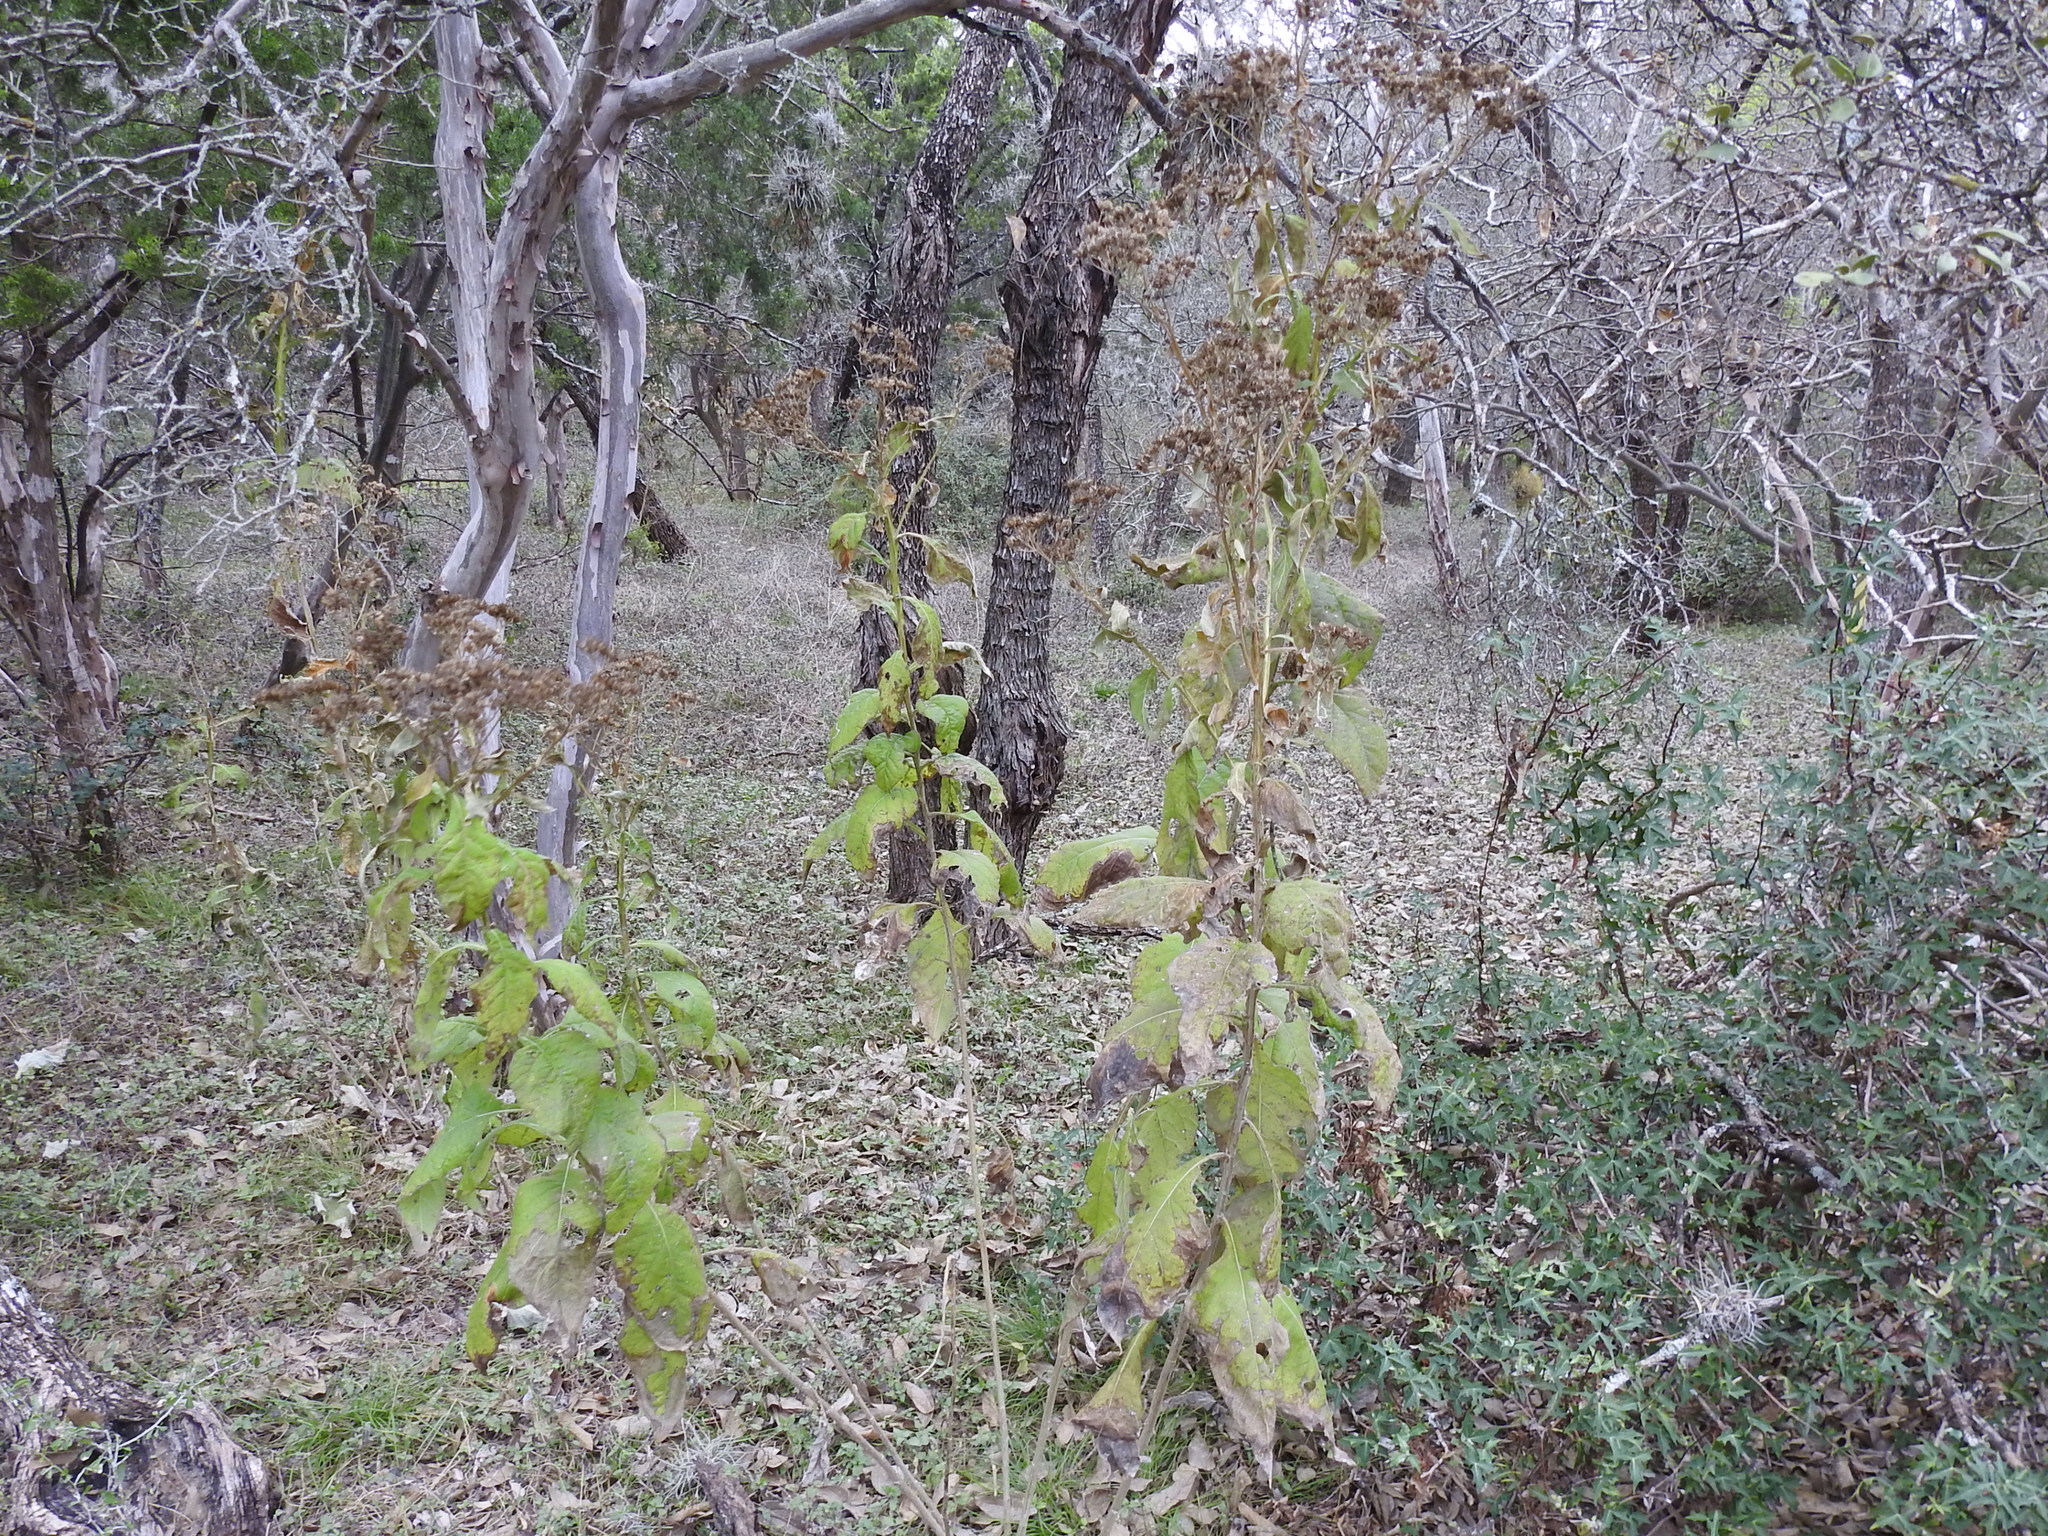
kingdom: Plantae
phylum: Tracheophyta
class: Magnoliopsida
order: Asterales
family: Asteraceae
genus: Verbesina
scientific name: Verbesina virginica
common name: Frostweed
